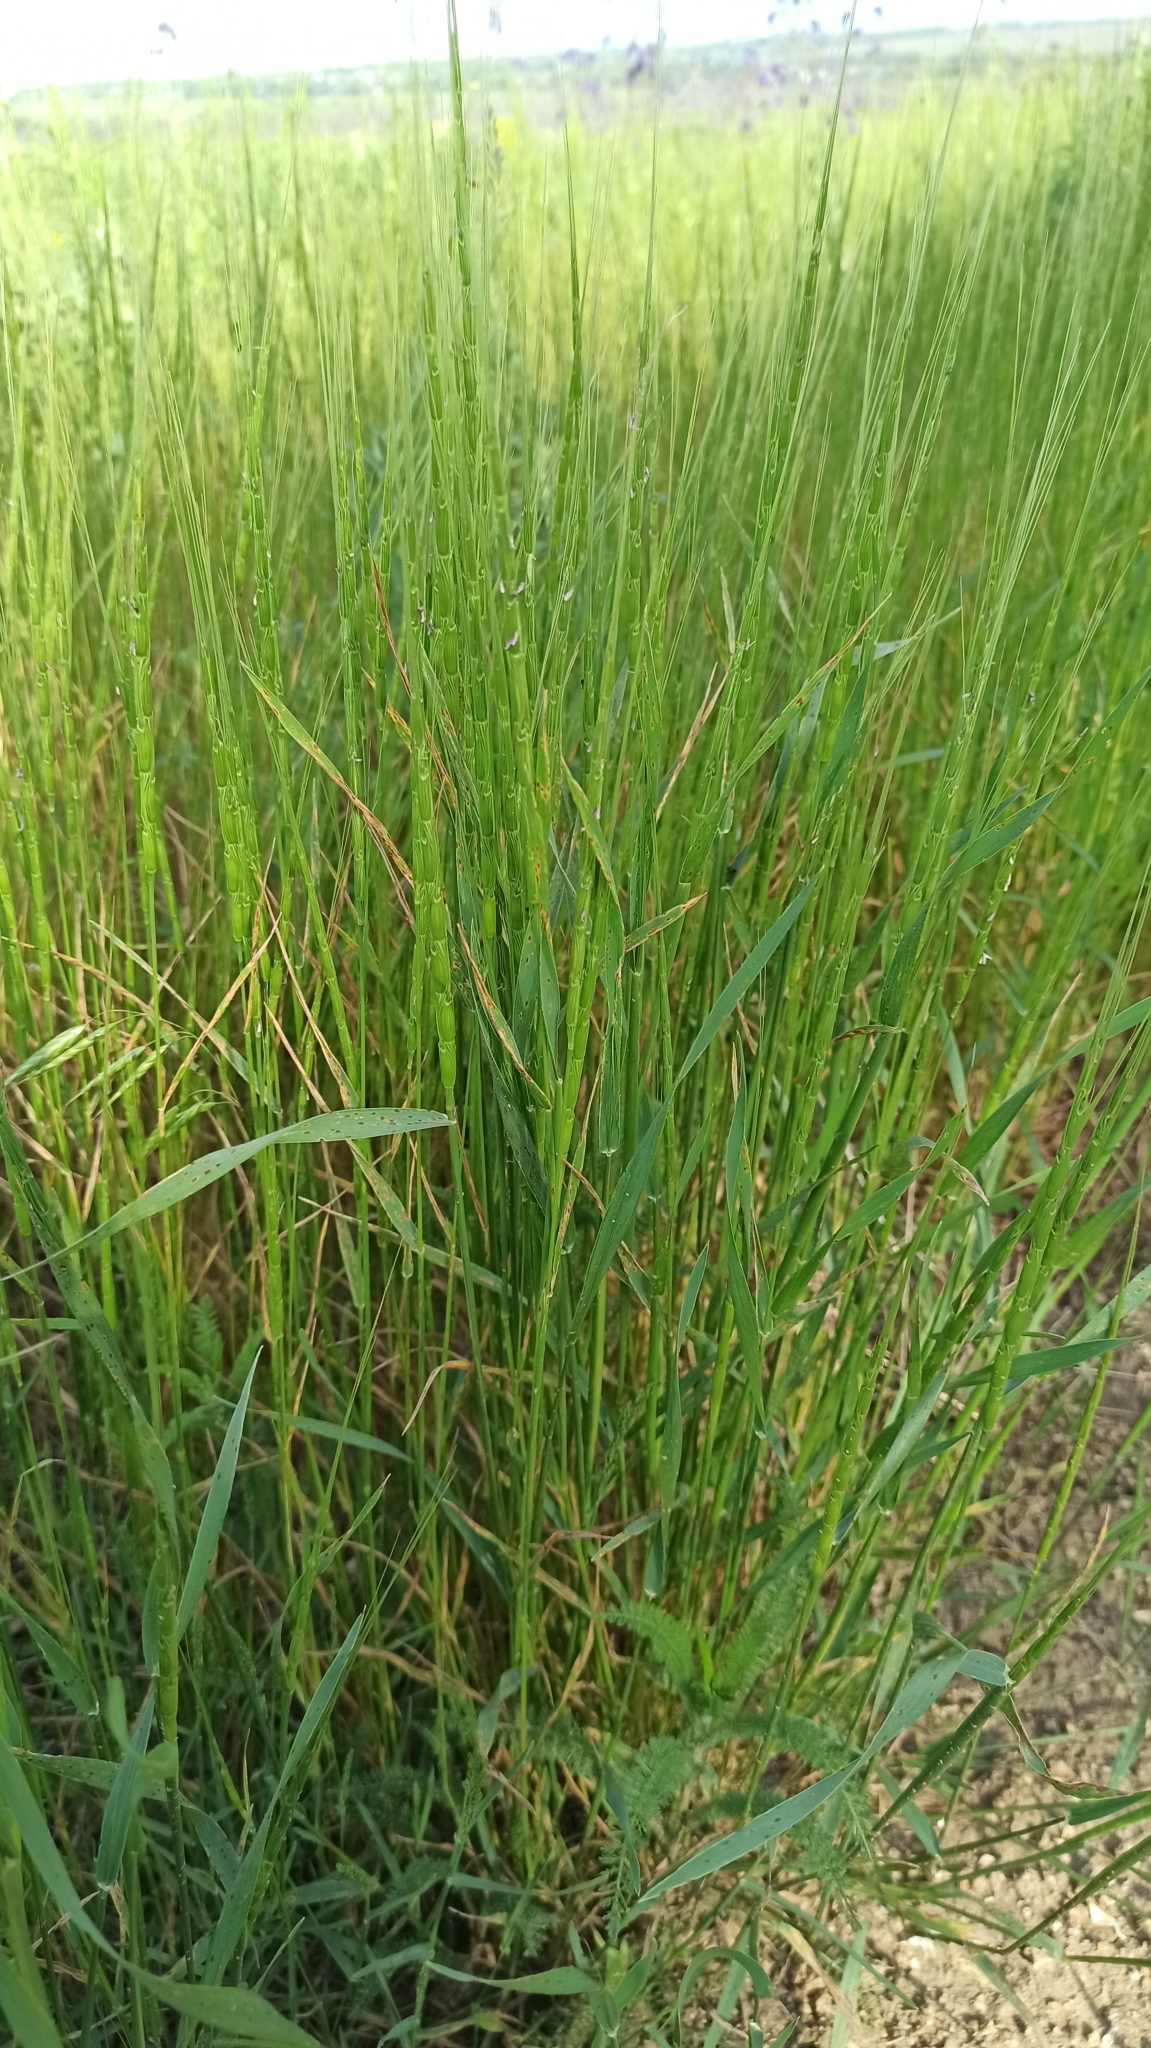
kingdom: Plantae
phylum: Tracheophyta
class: Liliopsida
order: Poales
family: Poaceae
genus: Aegilops
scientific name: Aegilops cylindrica
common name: Jointed goatgrass
